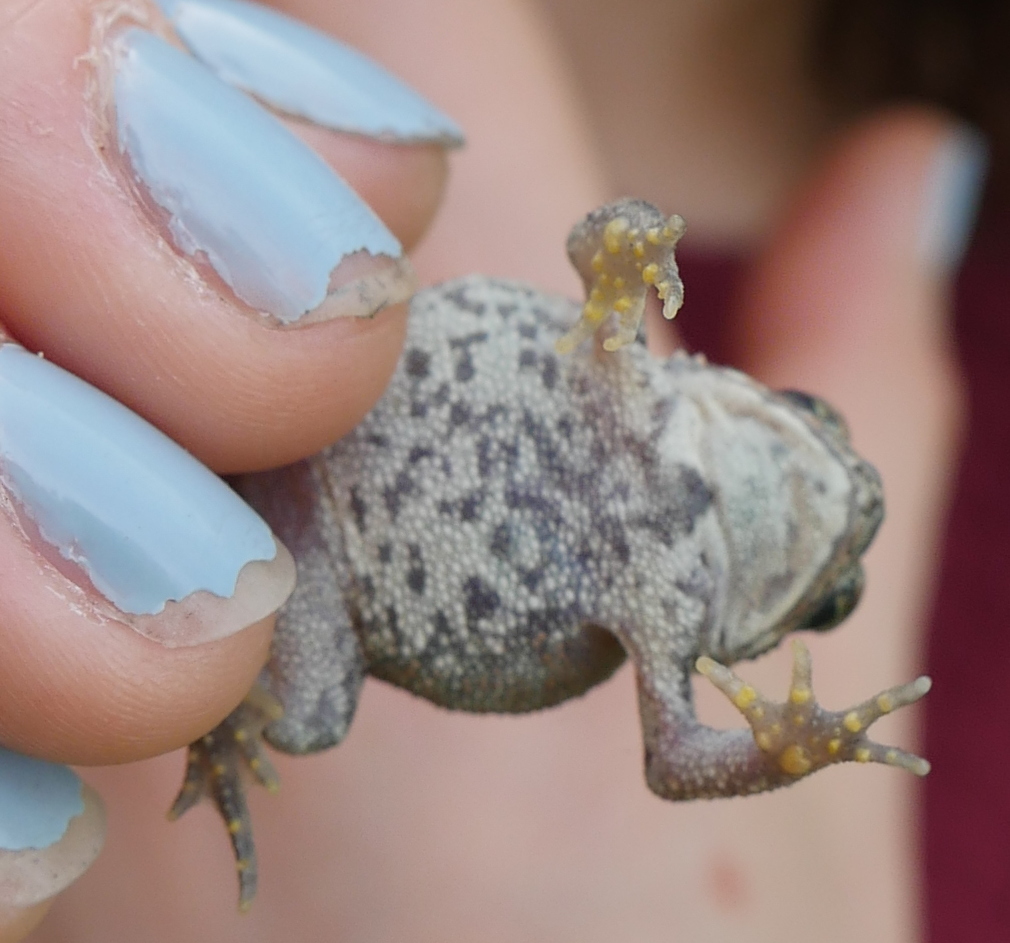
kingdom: Animalia
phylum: Chordata
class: Amphibia
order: Anura
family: Bufonidae
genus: Anaxyrus
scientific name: Anaxyrus americanus
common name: American toad
